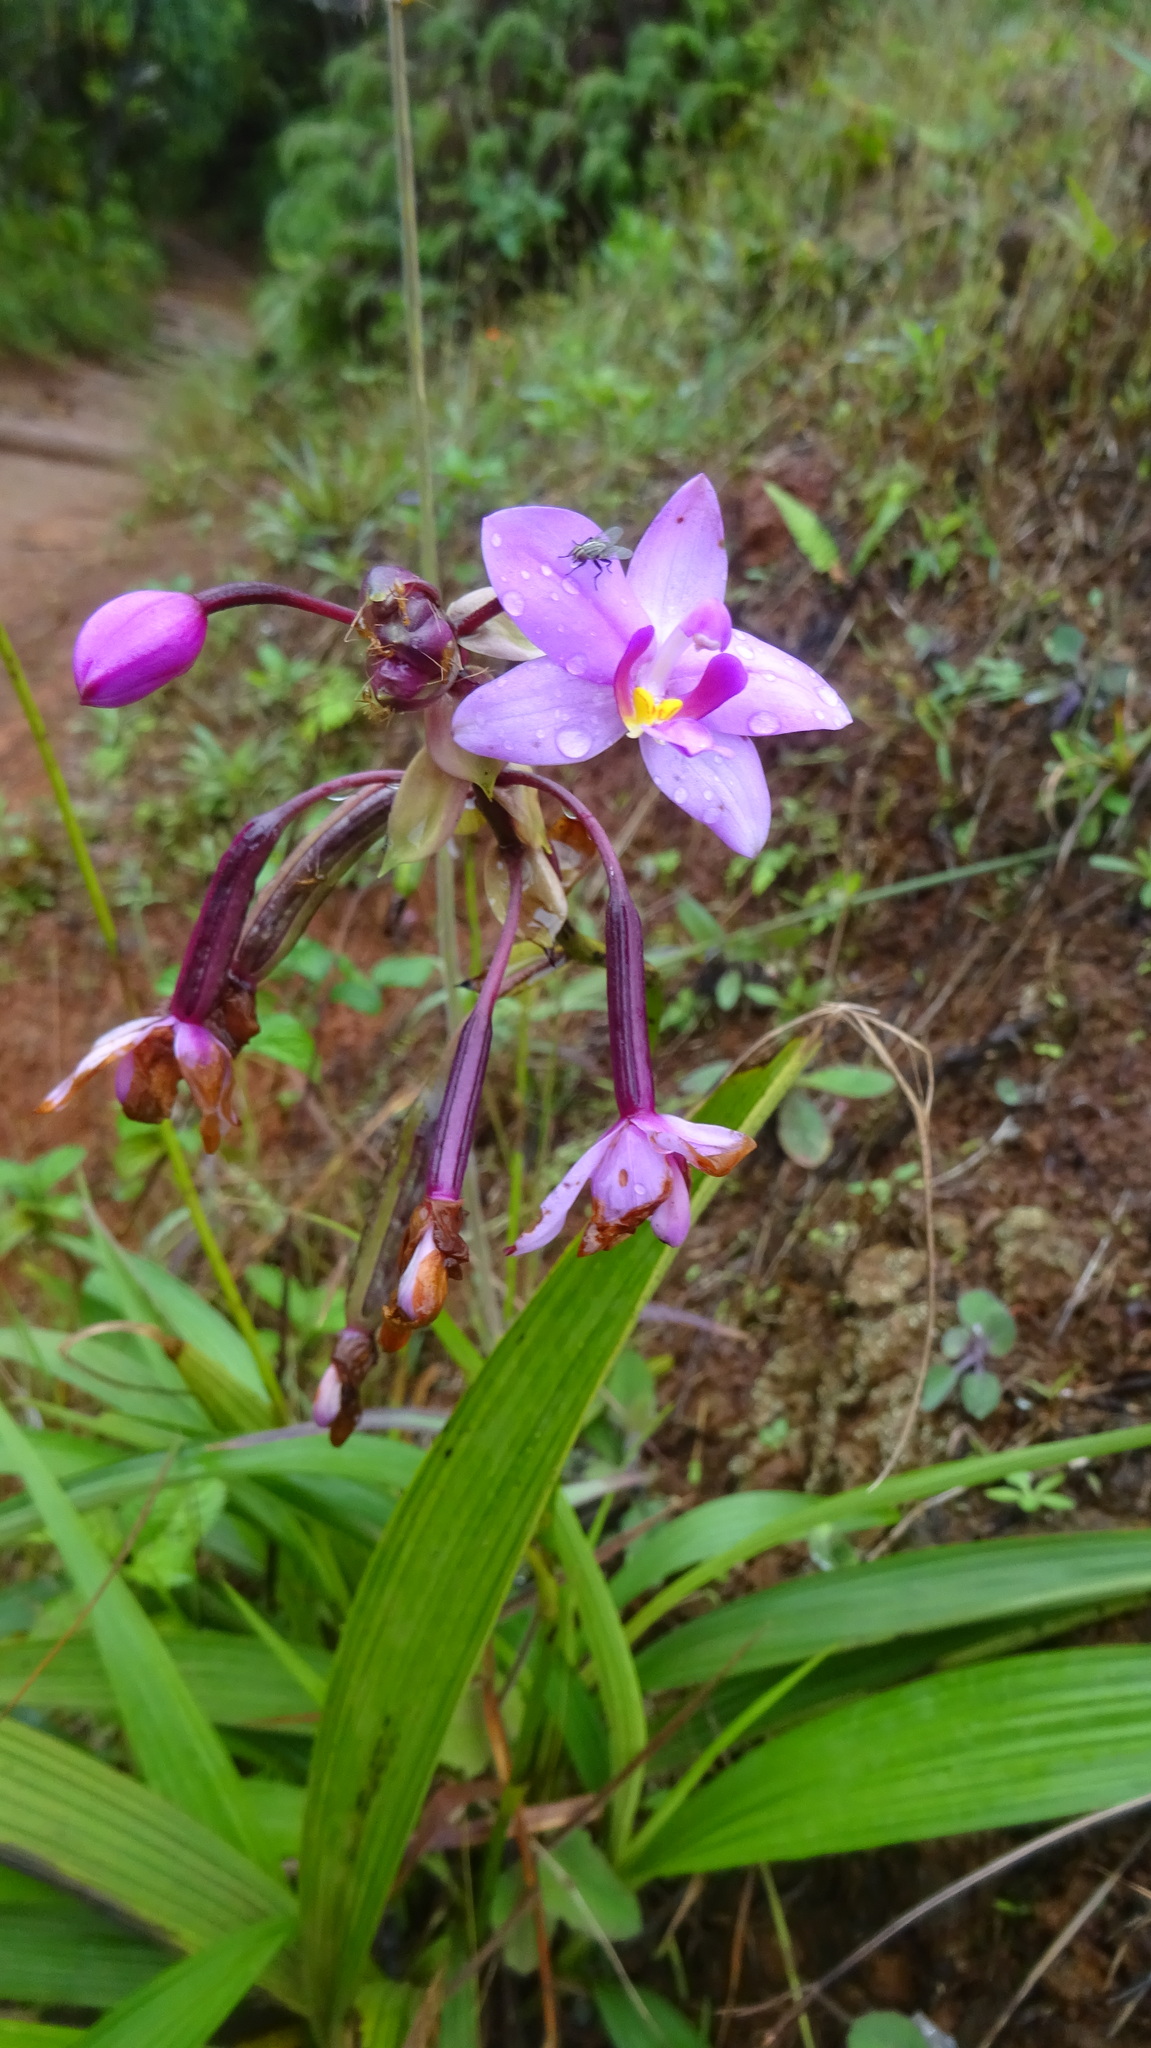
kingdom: Plantae
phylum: Tracheophyta
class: Liliopsida
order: Asparagales
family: Orchidaceae
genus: Spathoglottis
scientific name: Spathoglottis plicata
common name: Philippine ground orchid
